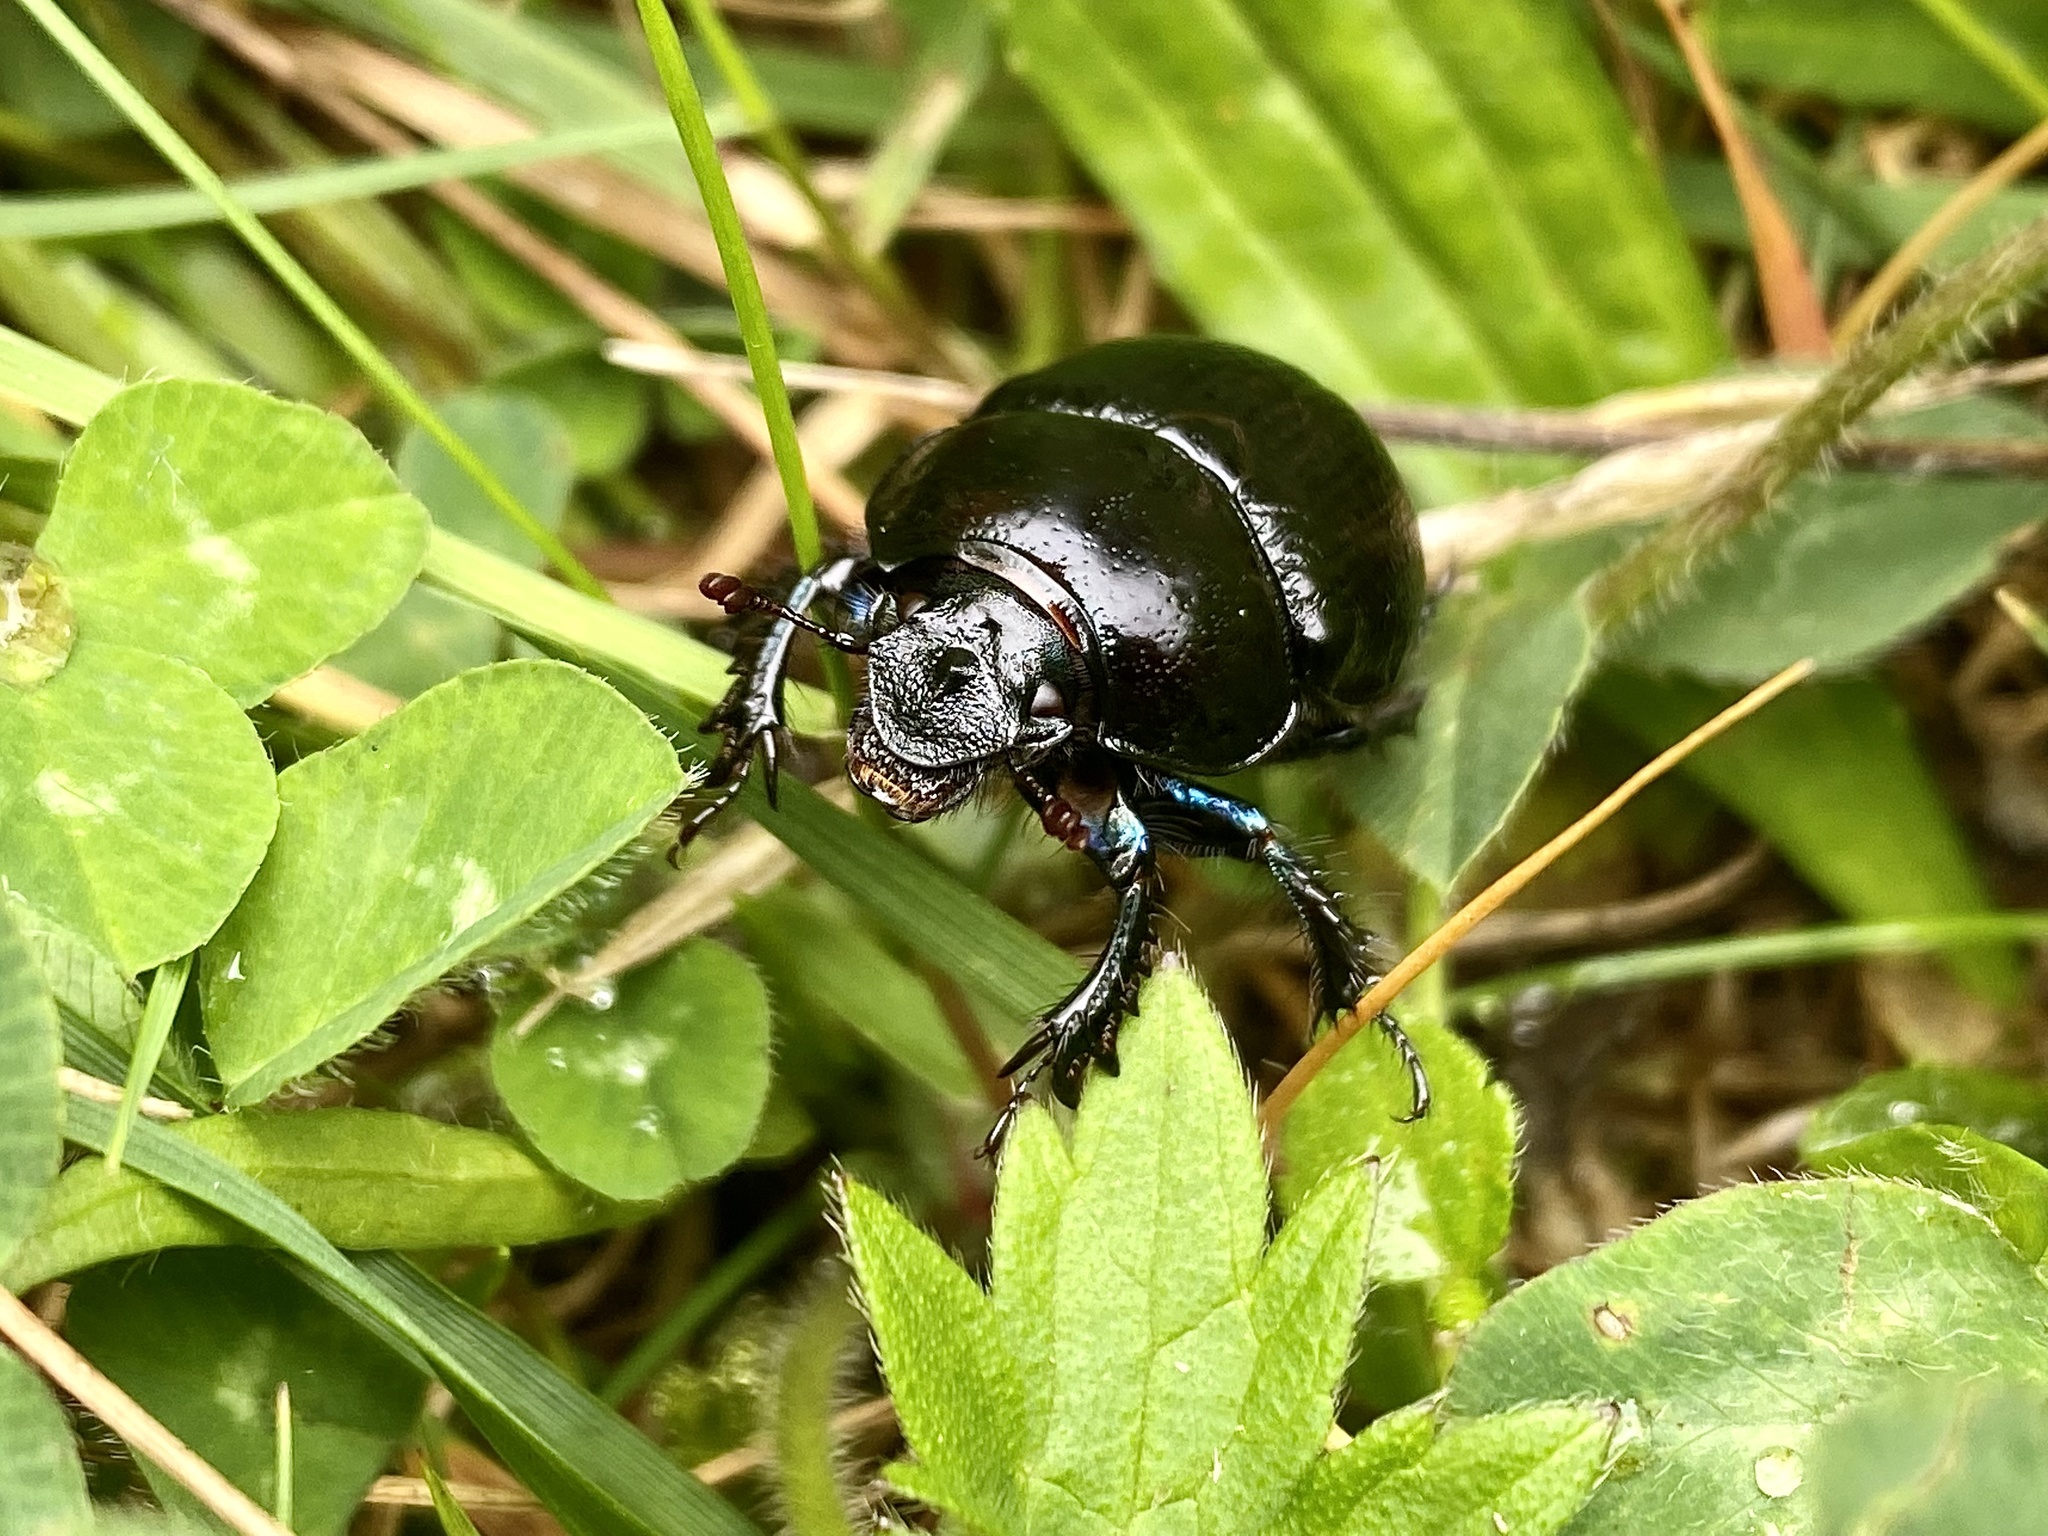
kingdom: Animalia
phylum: Arthropoda
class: Insecta
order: Coleoptera
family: Geotrupidae
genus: Anoplotrupes
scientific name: Anoplotrupes stercorosus
